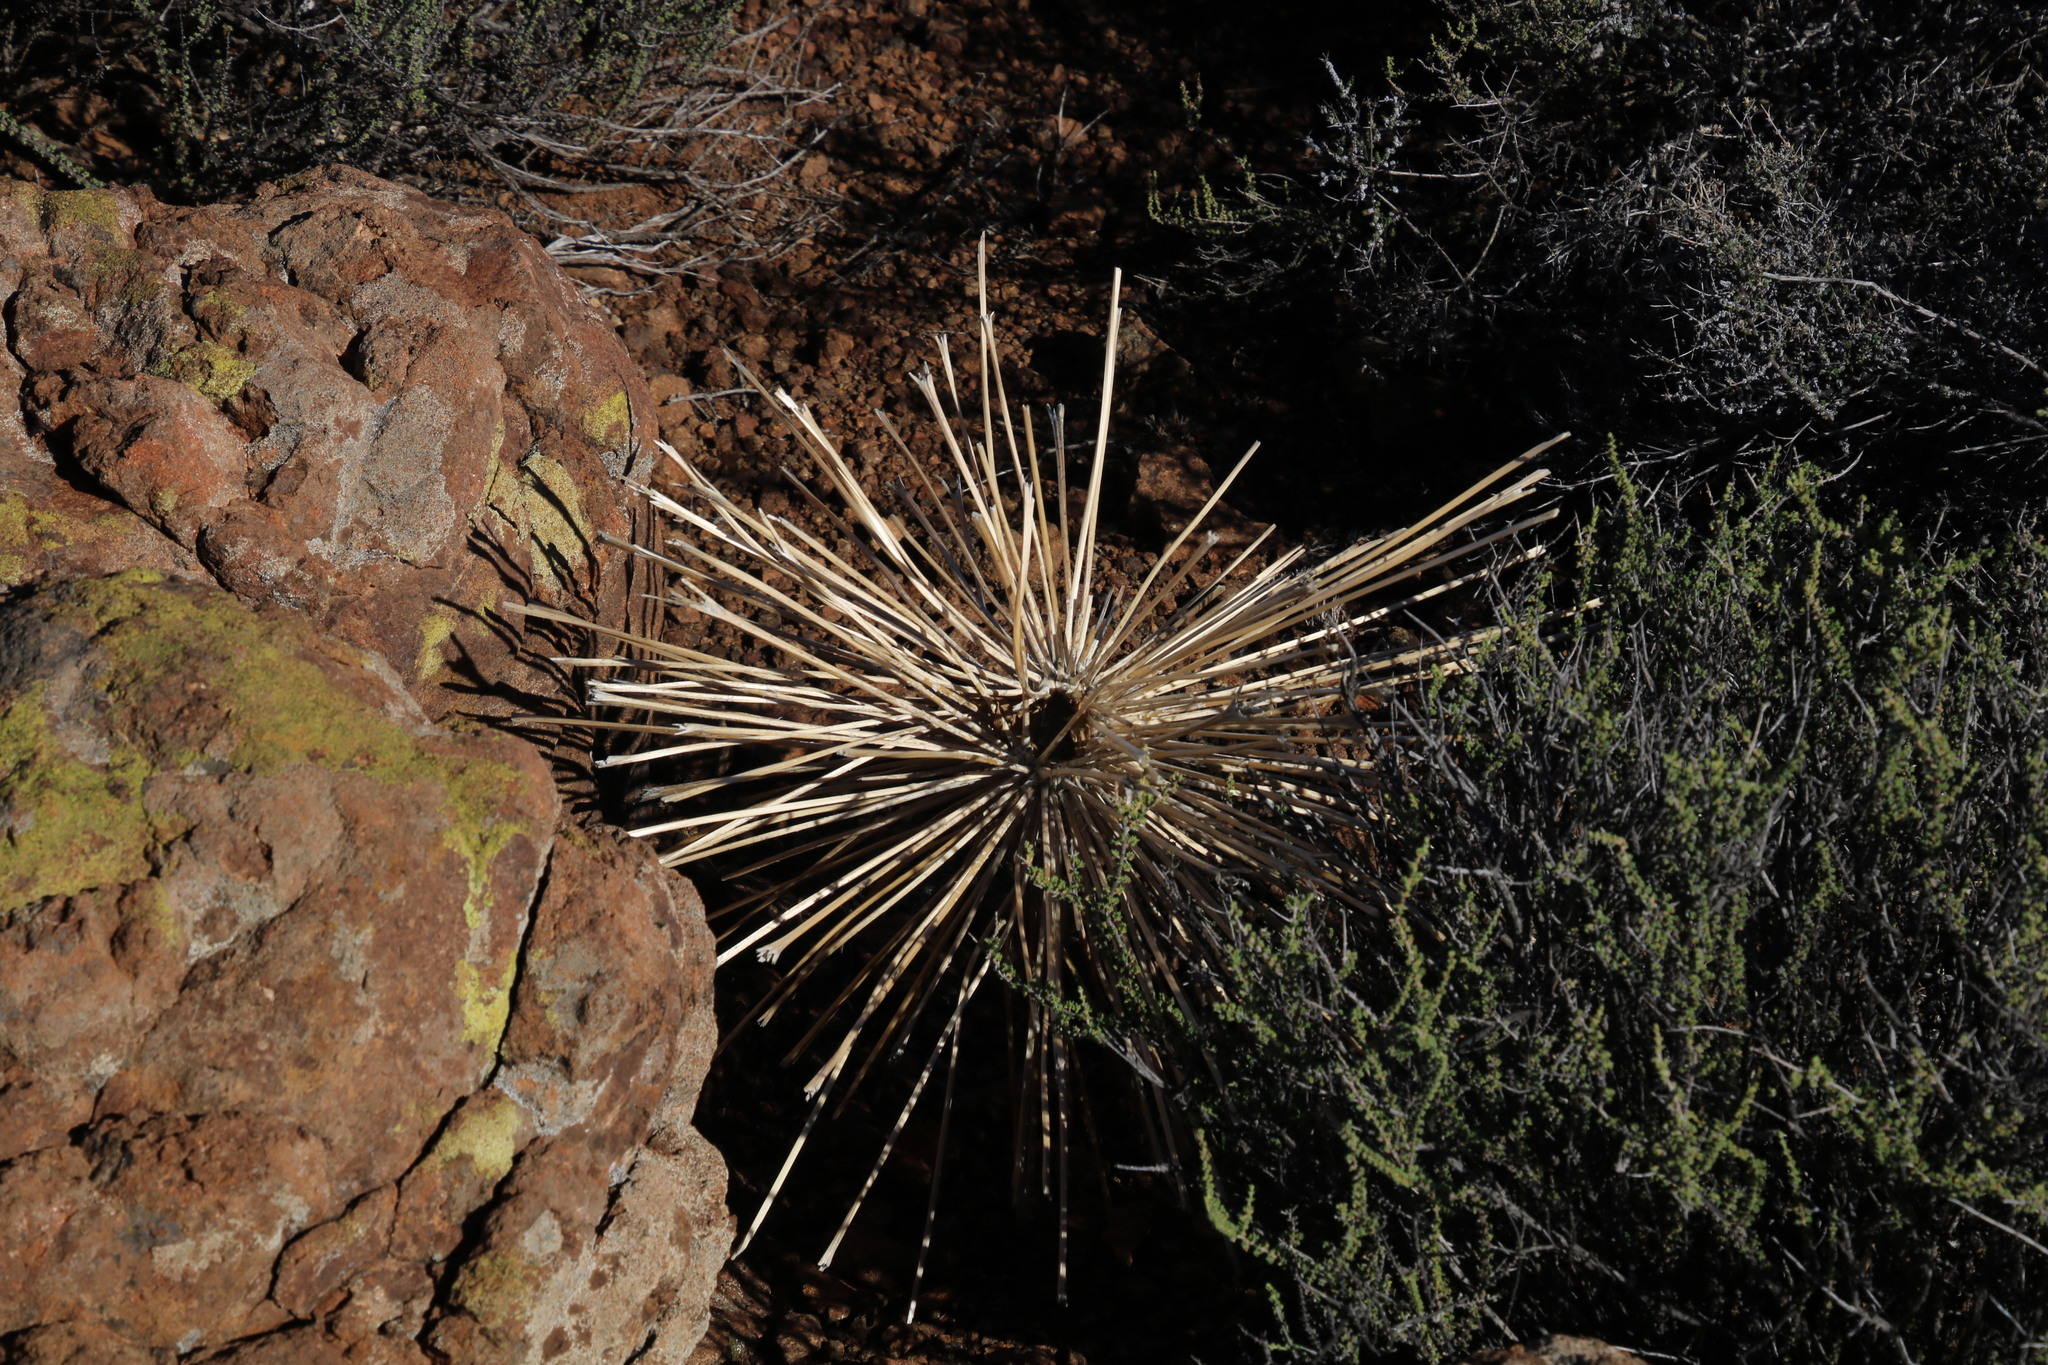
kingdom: Plantae
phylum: Tracheophyta
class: Liliopsida
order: Asparagales
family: Amaryllidaceae
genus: Boophone
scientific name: Boophone disticha
